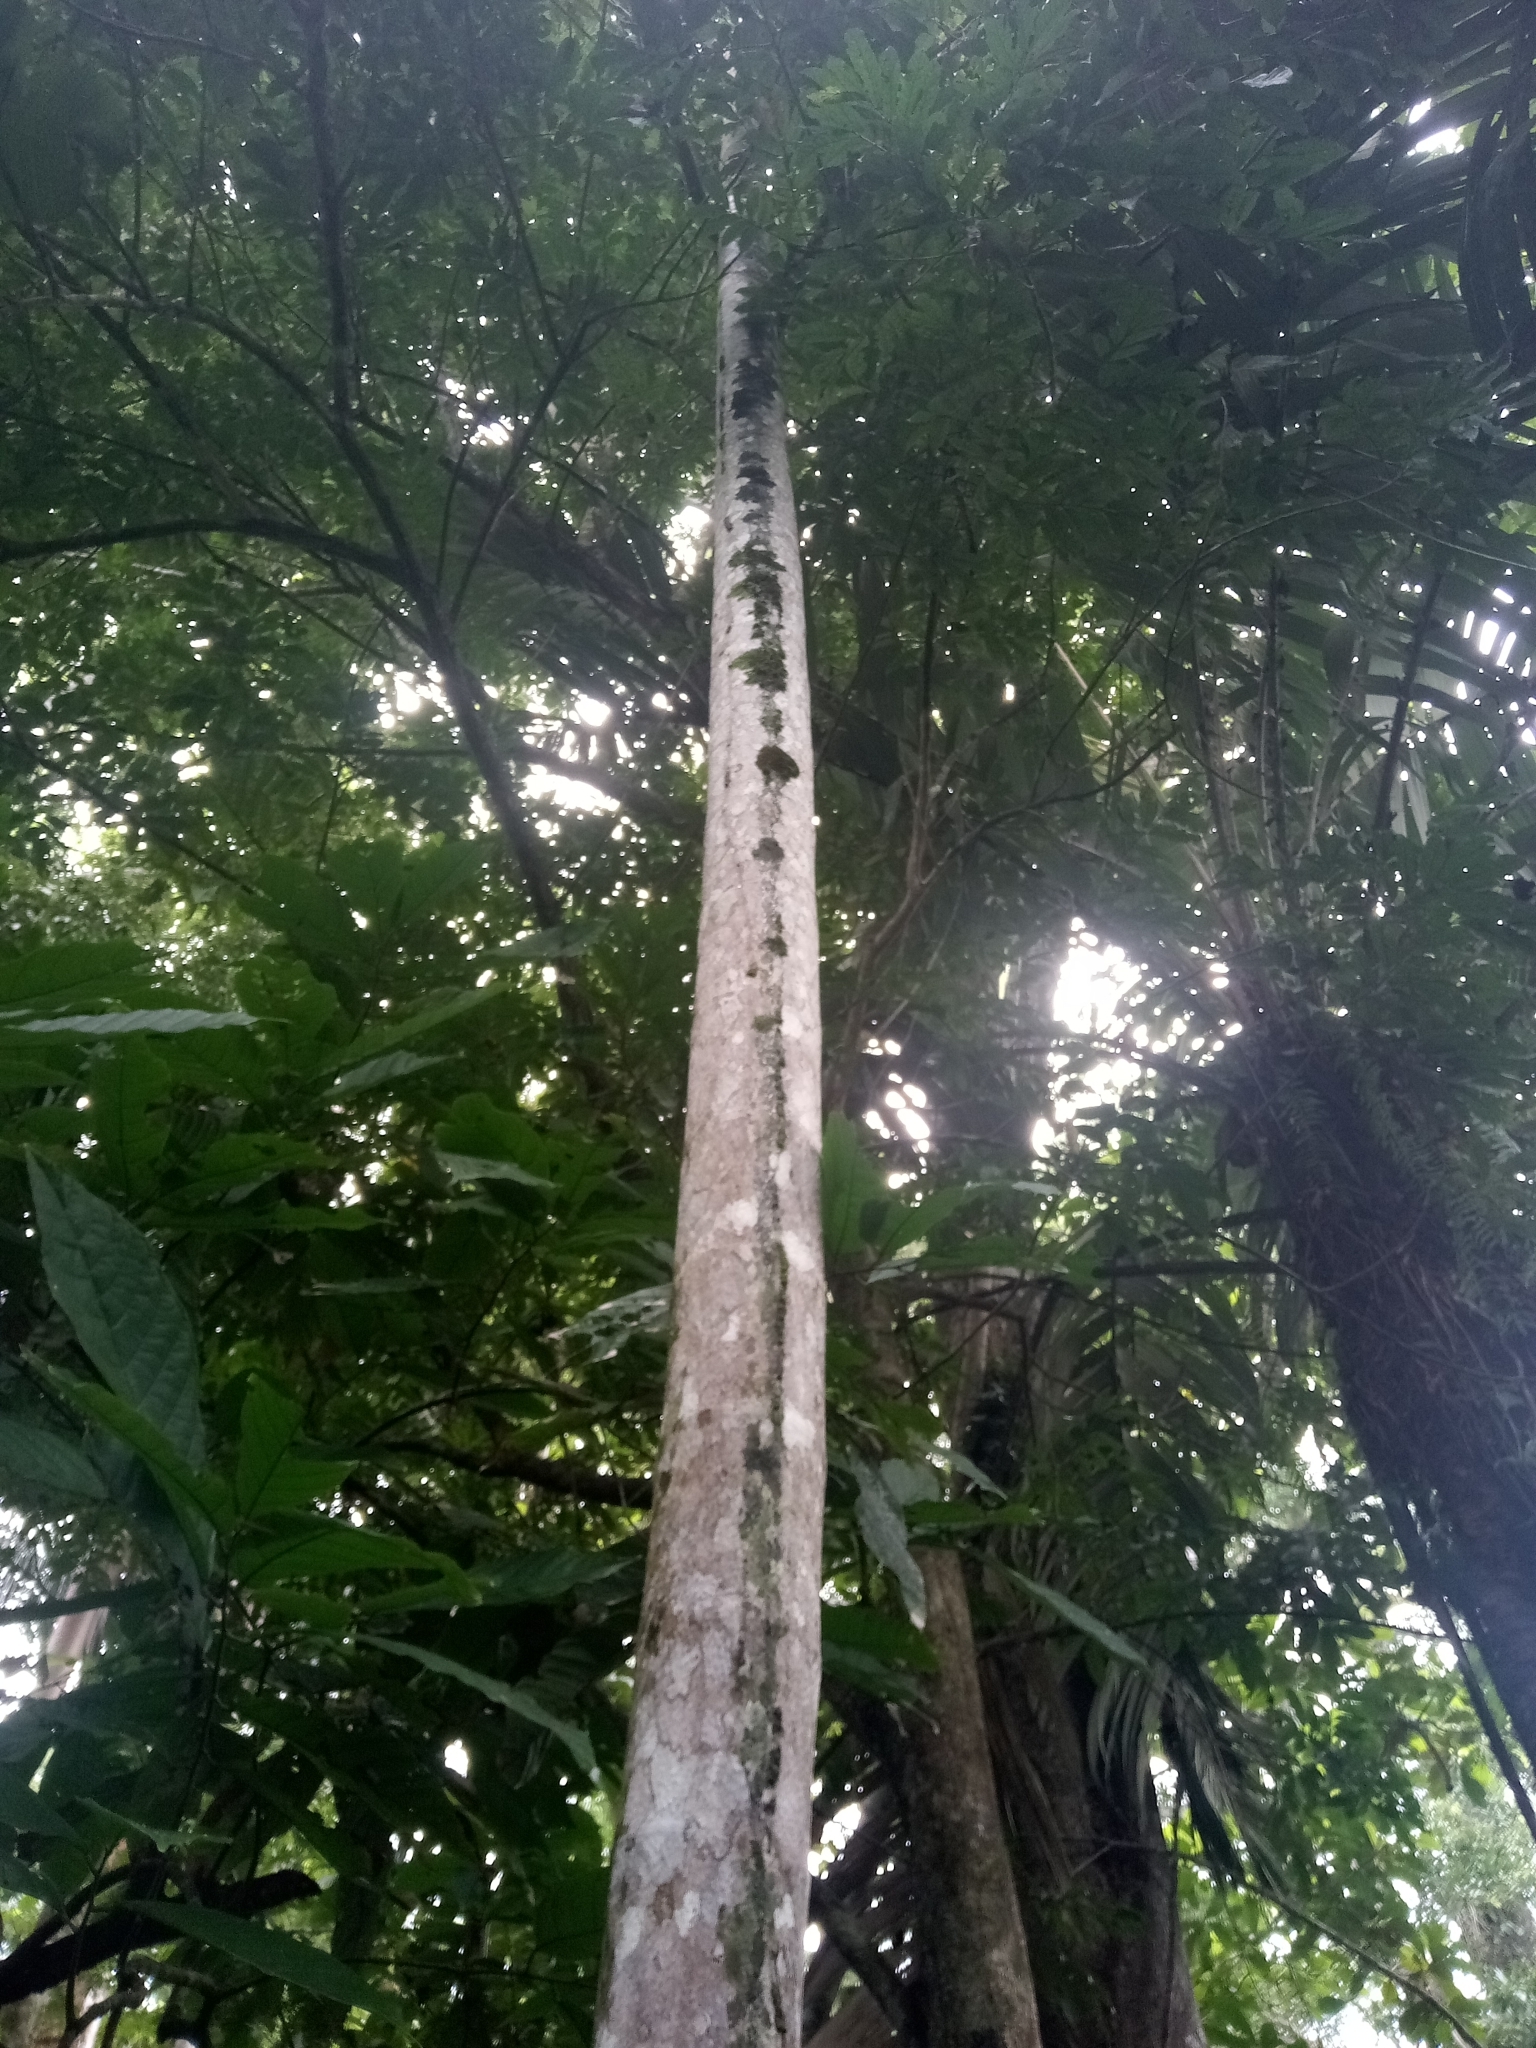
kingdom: Plantae
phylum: Tracheophyta
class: Liliopsida
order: Arecales
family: Arecaceae
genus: Socratea
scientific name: Socratea exorrhiza
